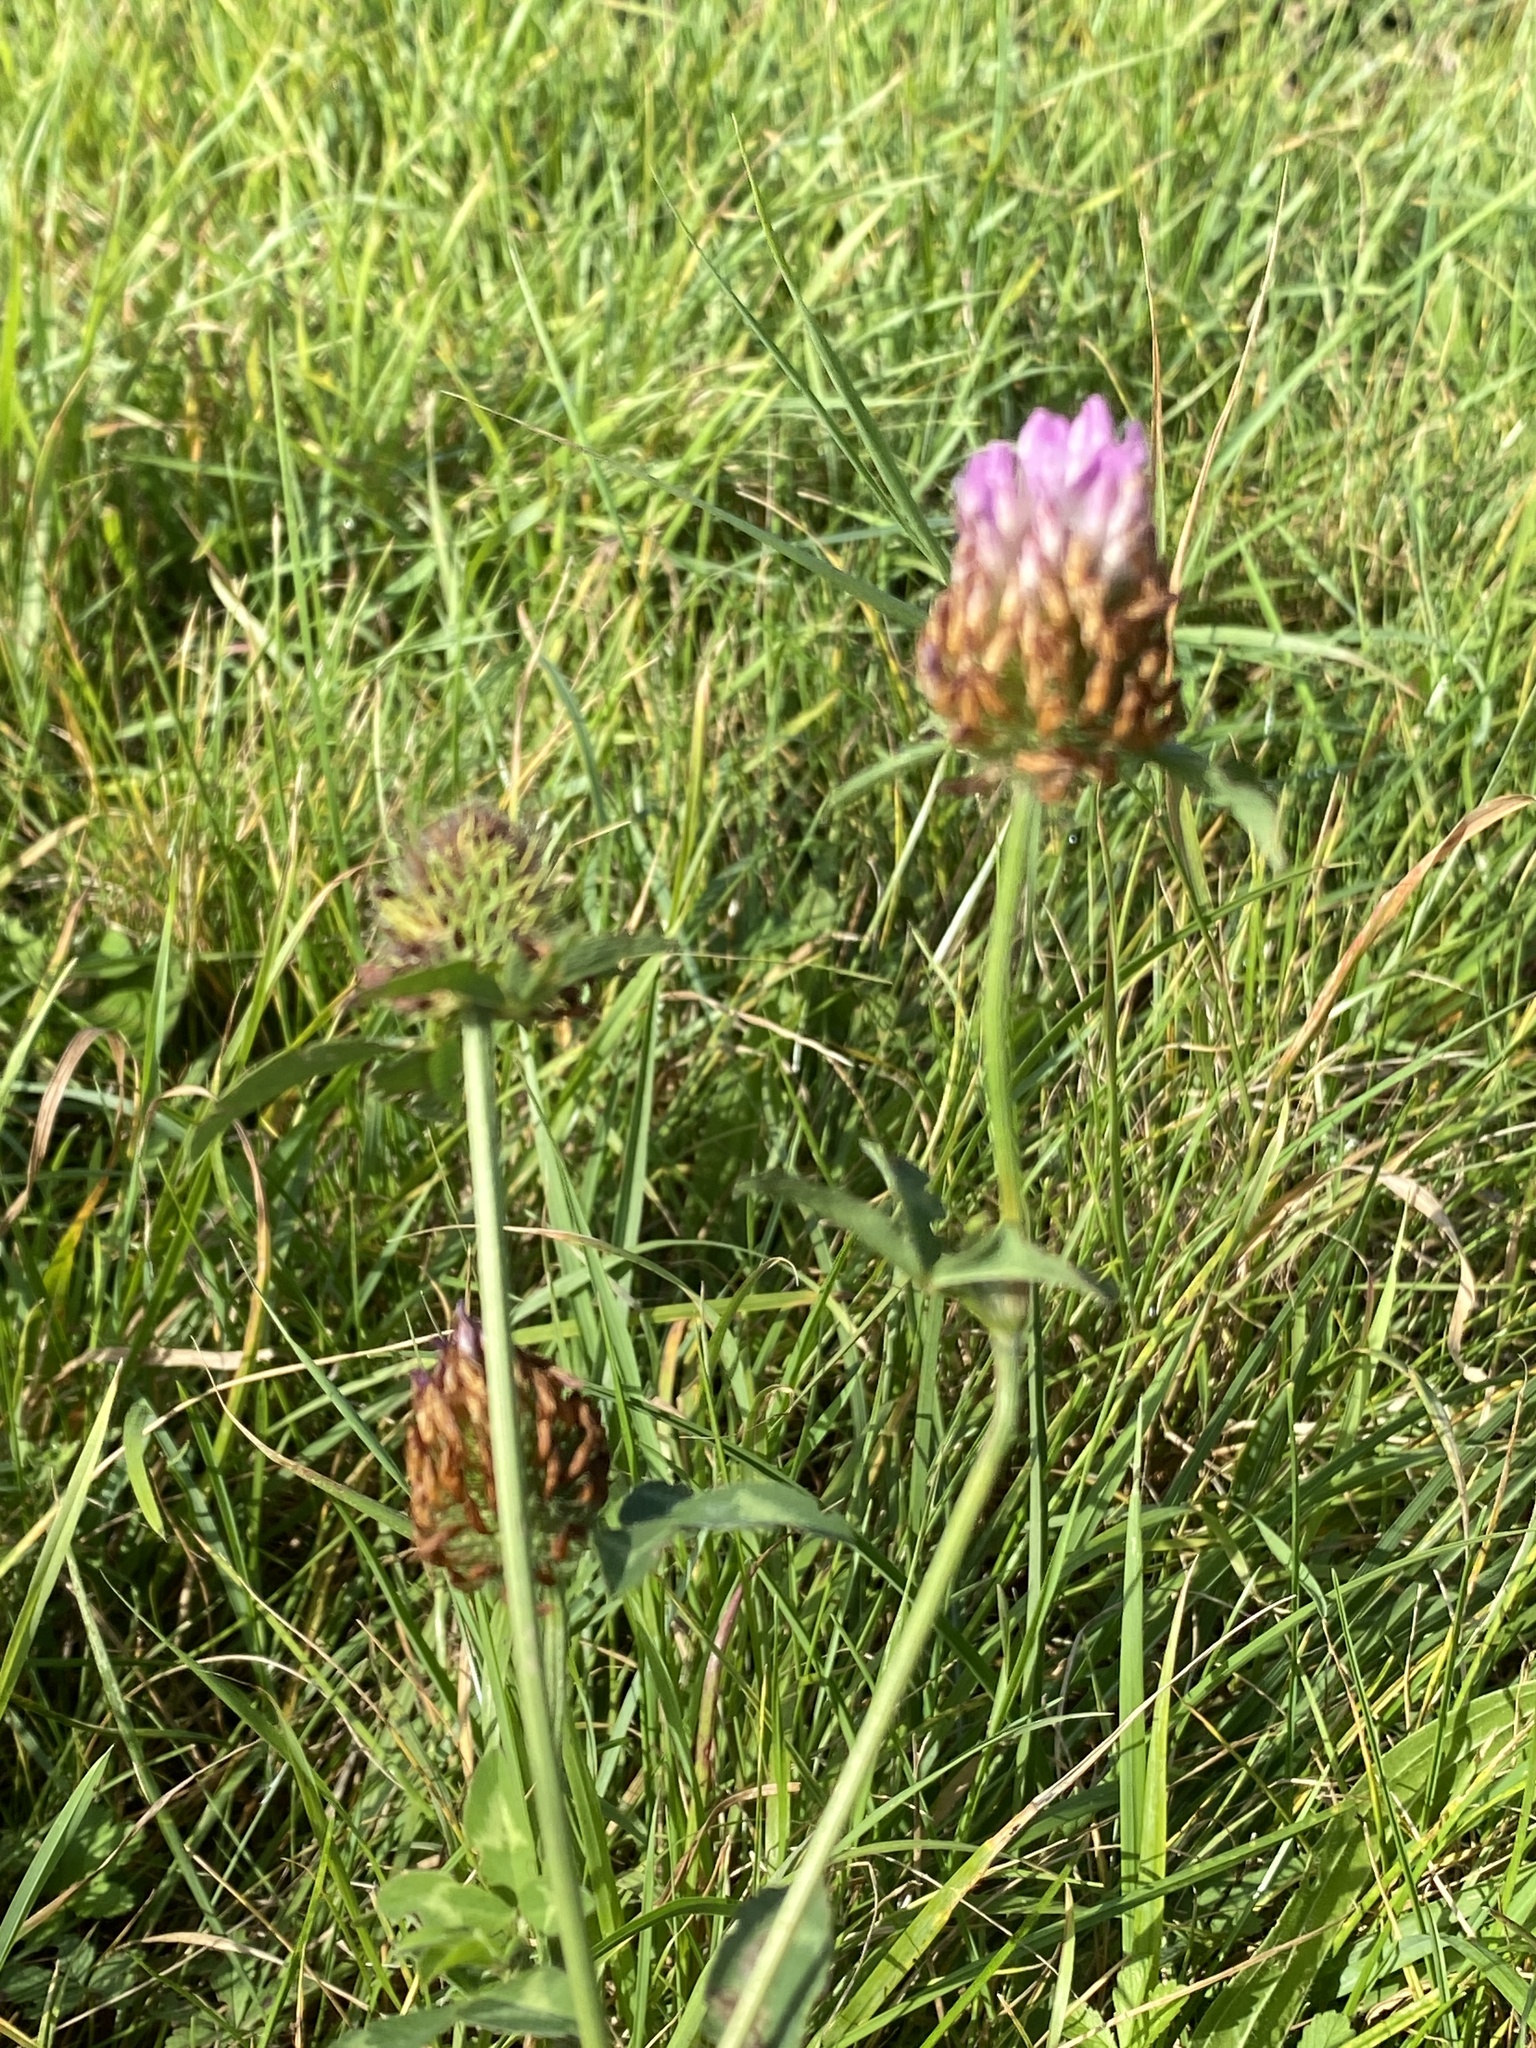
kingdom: Plantae
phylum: Tracheophyta
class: Magnoliopsida
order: Fabales
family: Fabaceae
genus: Trifolium
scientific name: Trifolium pratense
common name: Red clover
